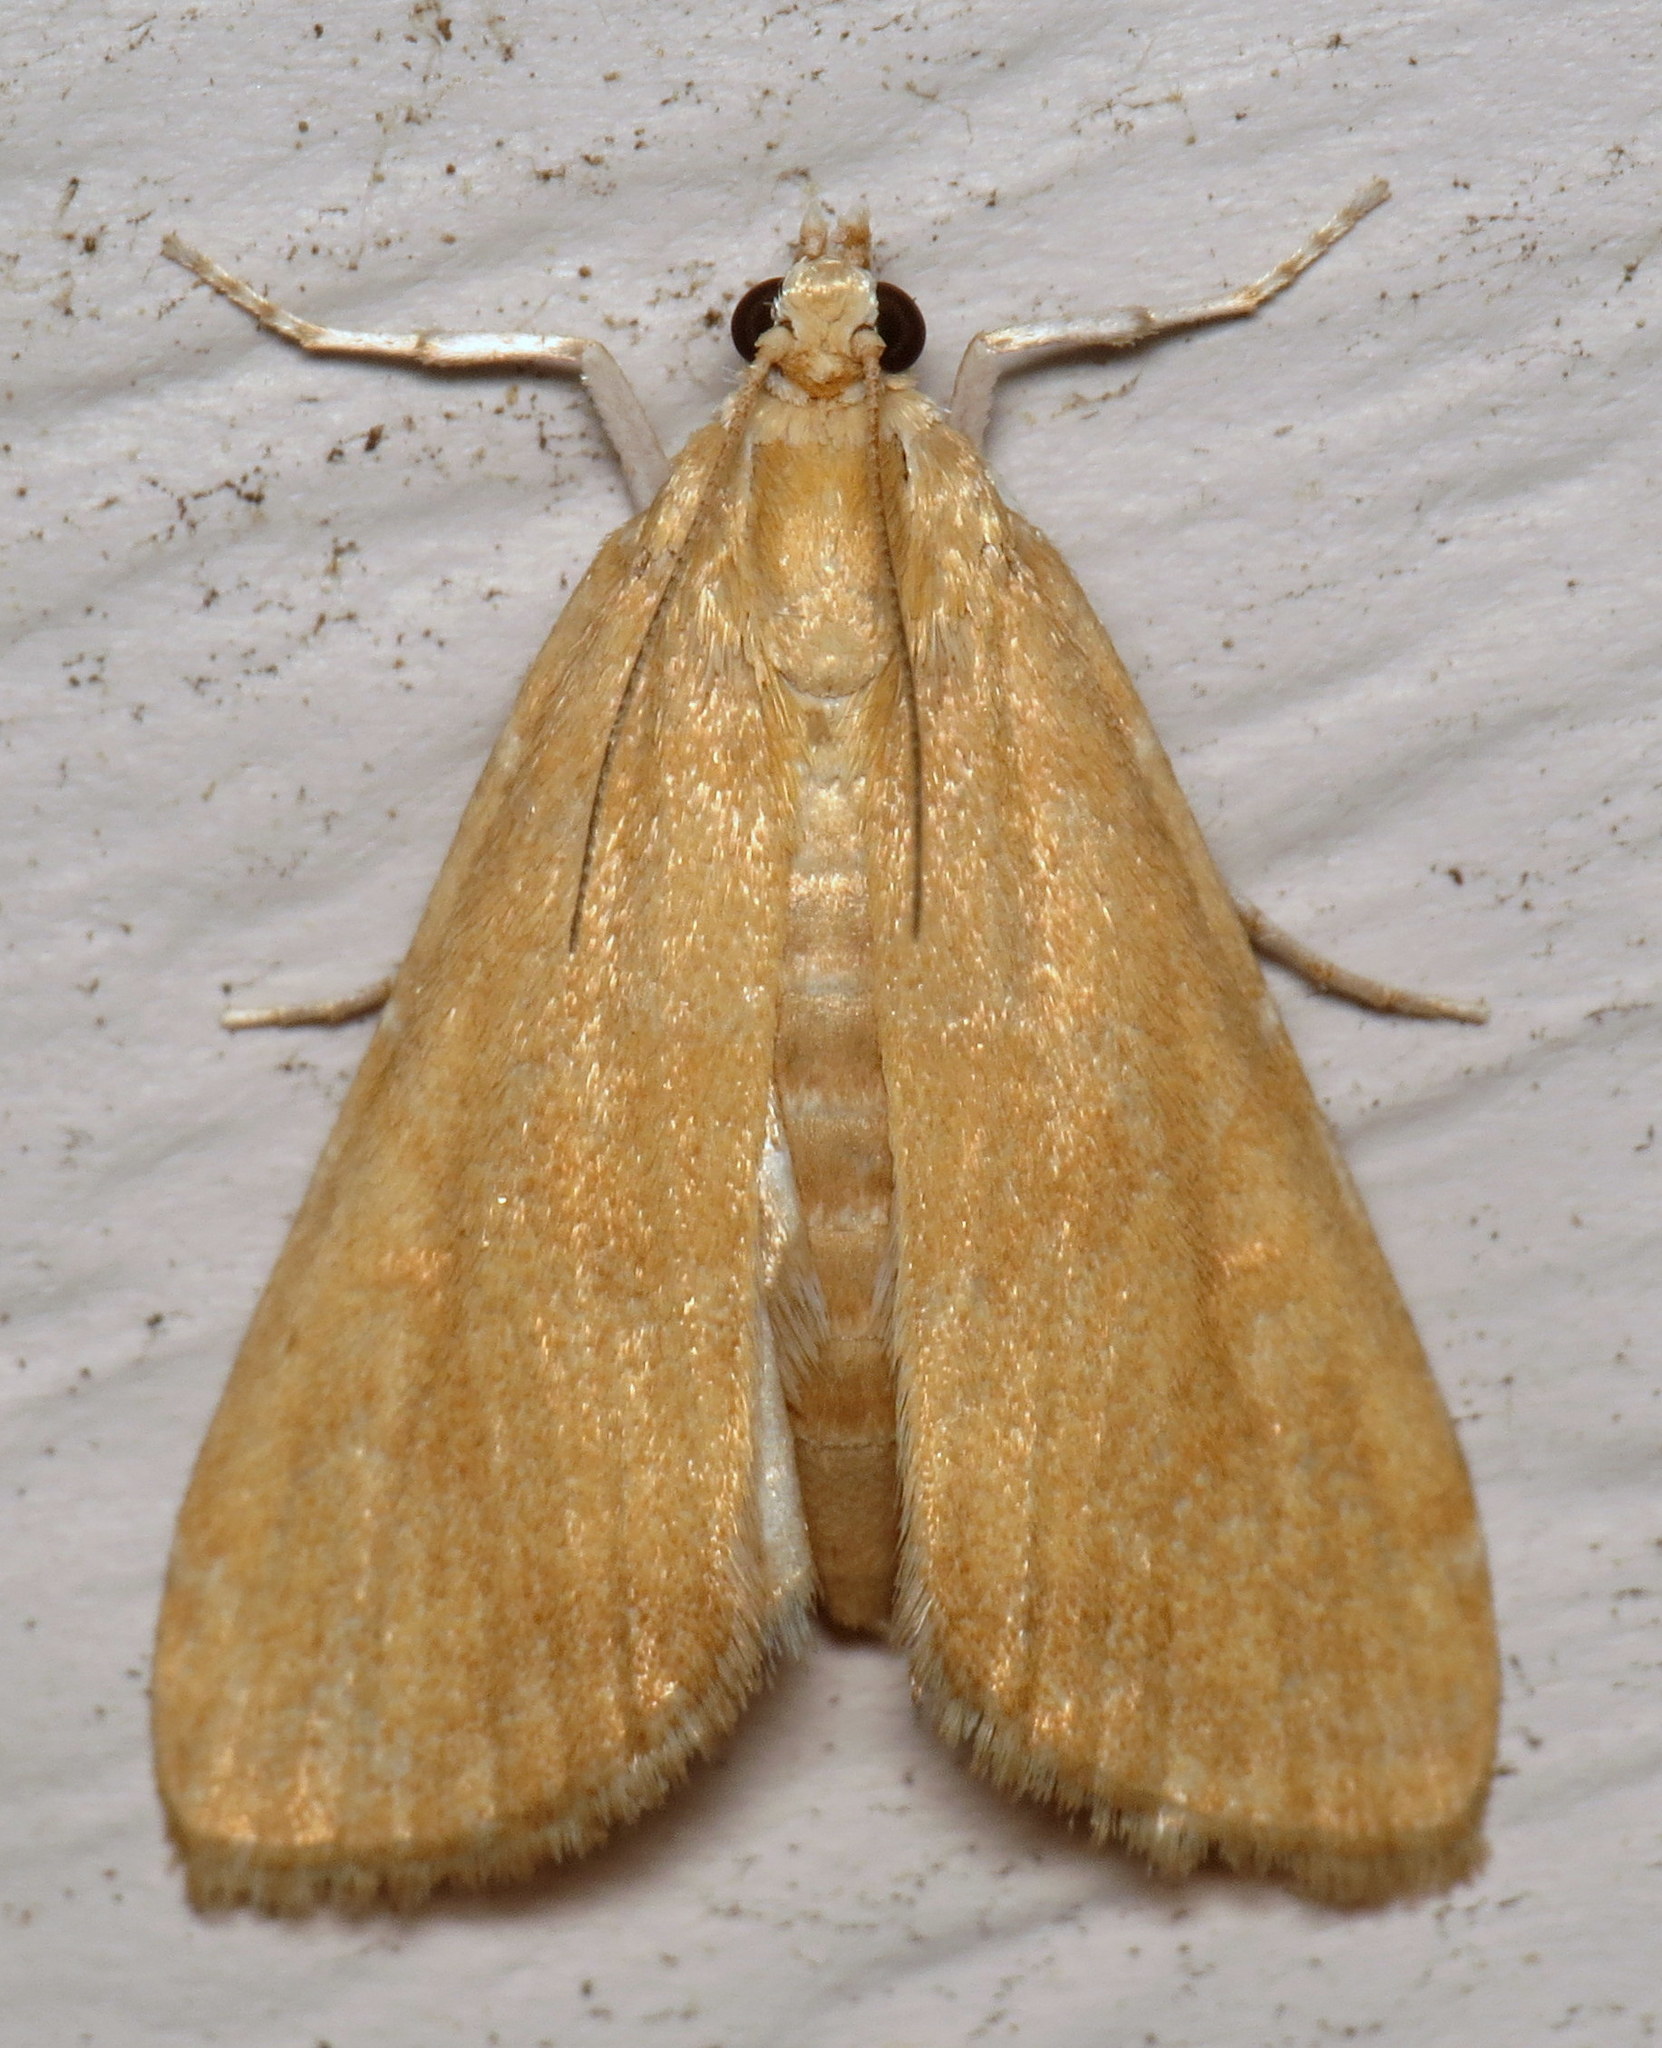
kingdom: Animalia
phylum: Arthropoda
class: Insecta
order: Lepidoptera
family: Crambidae
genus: Elophila
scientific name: Elophila gyralis
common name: Waterlily borer moth
